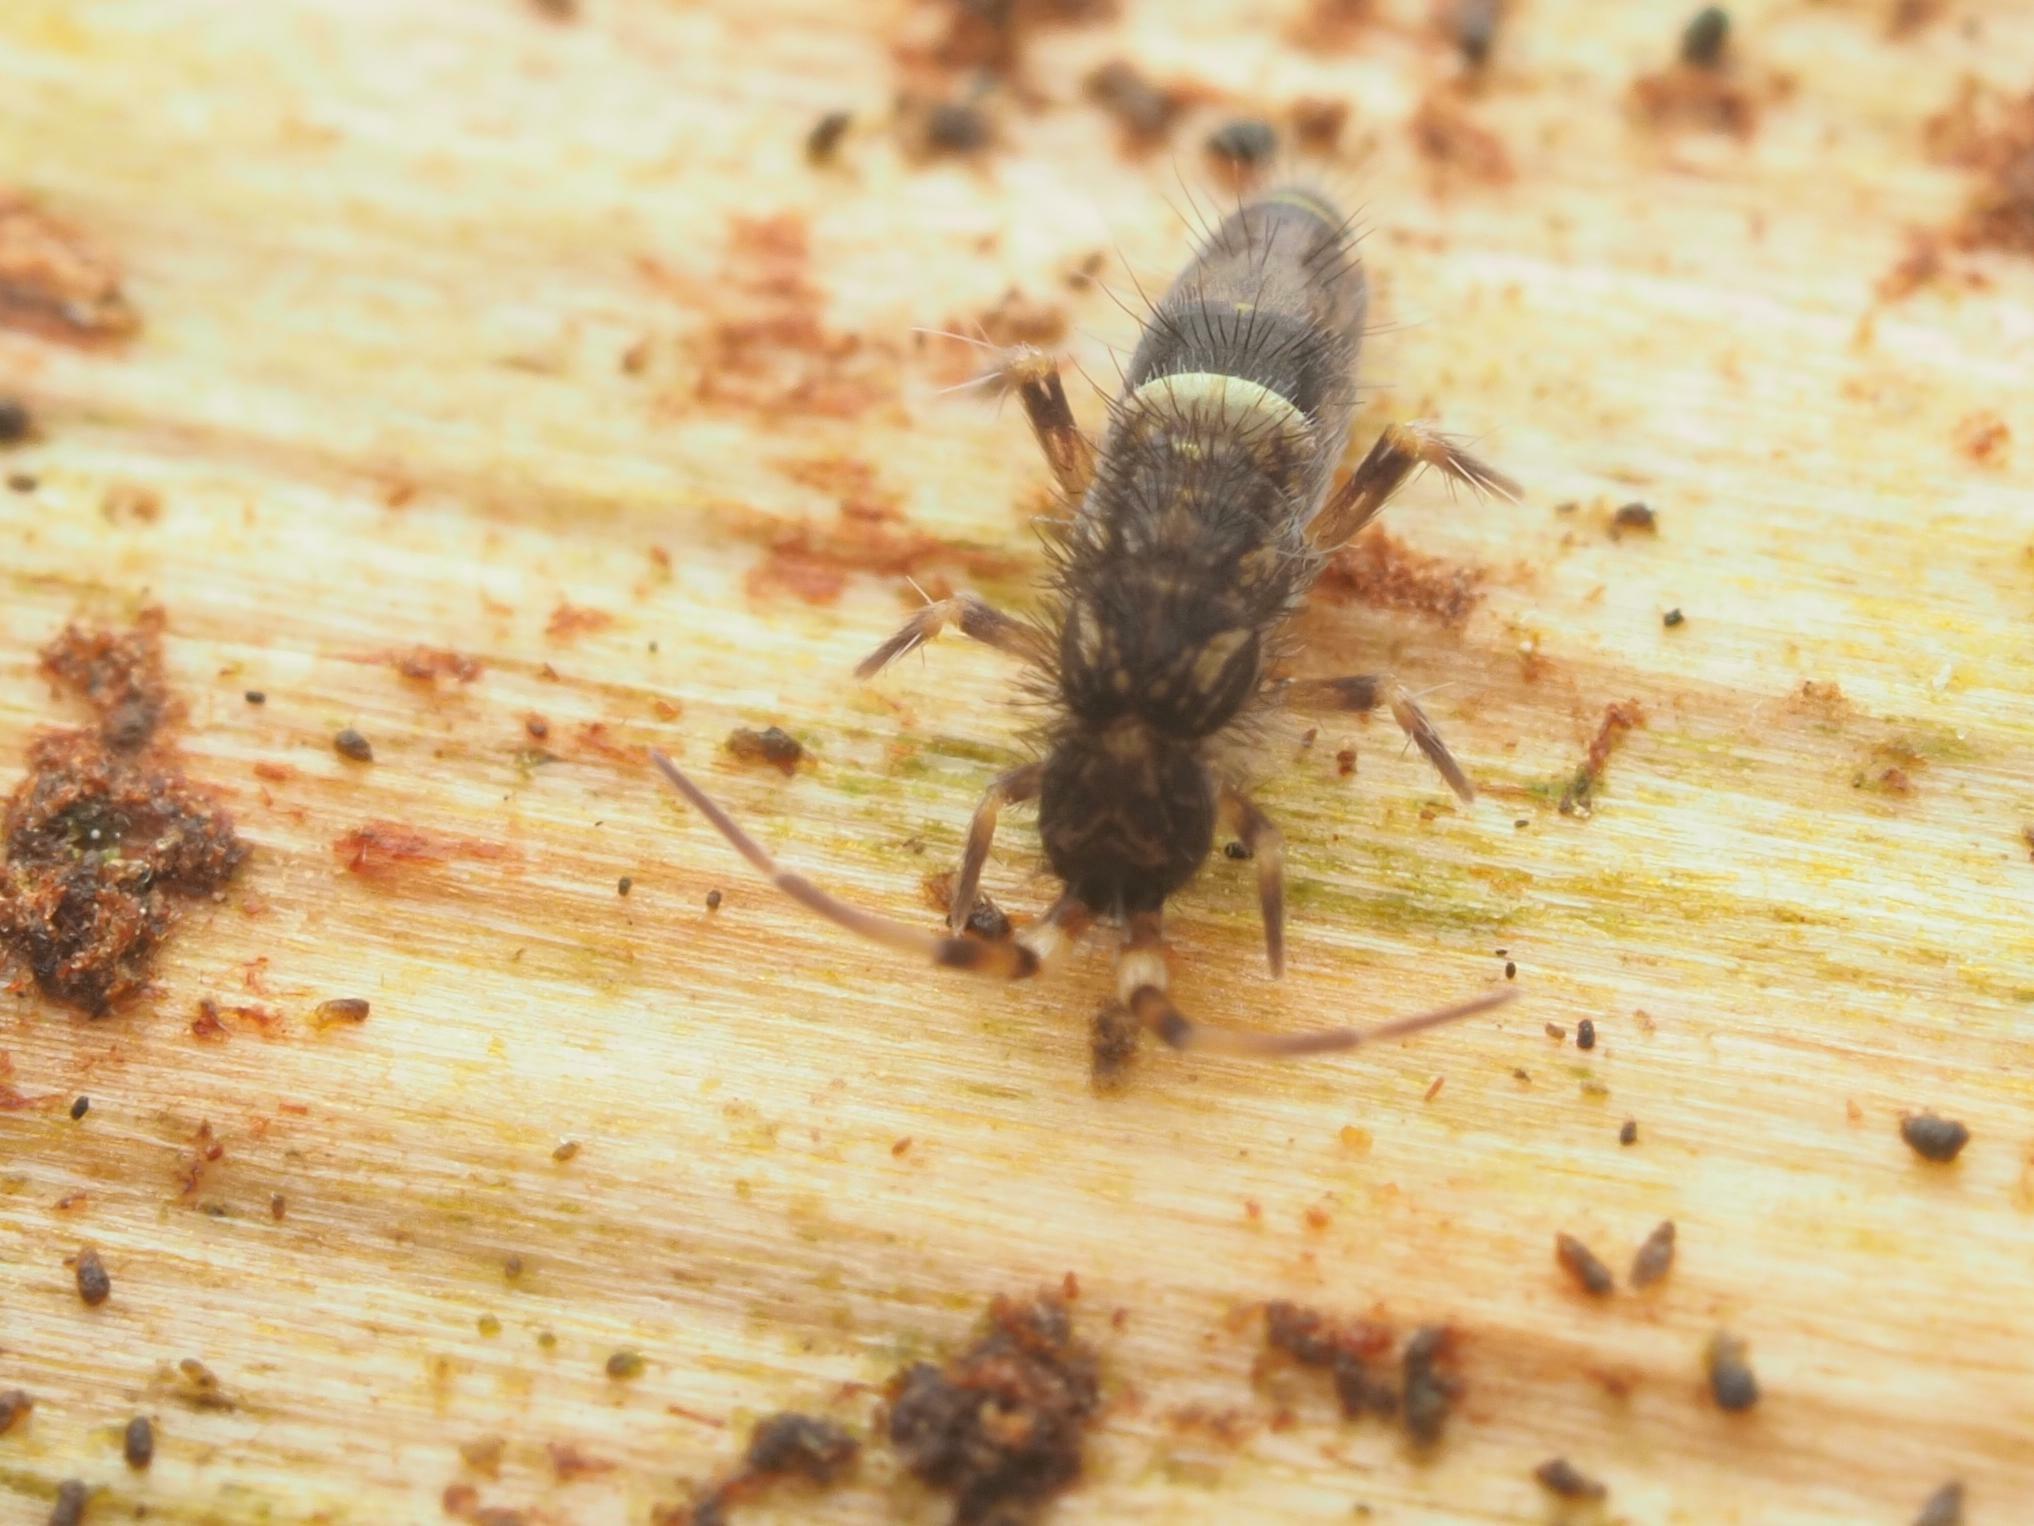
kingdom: Animalia
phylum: Arthropoda
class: Collembola
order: Entomobryomorpha
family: Orchesellidae
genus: Orchesella
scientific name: Orchesella cincta
